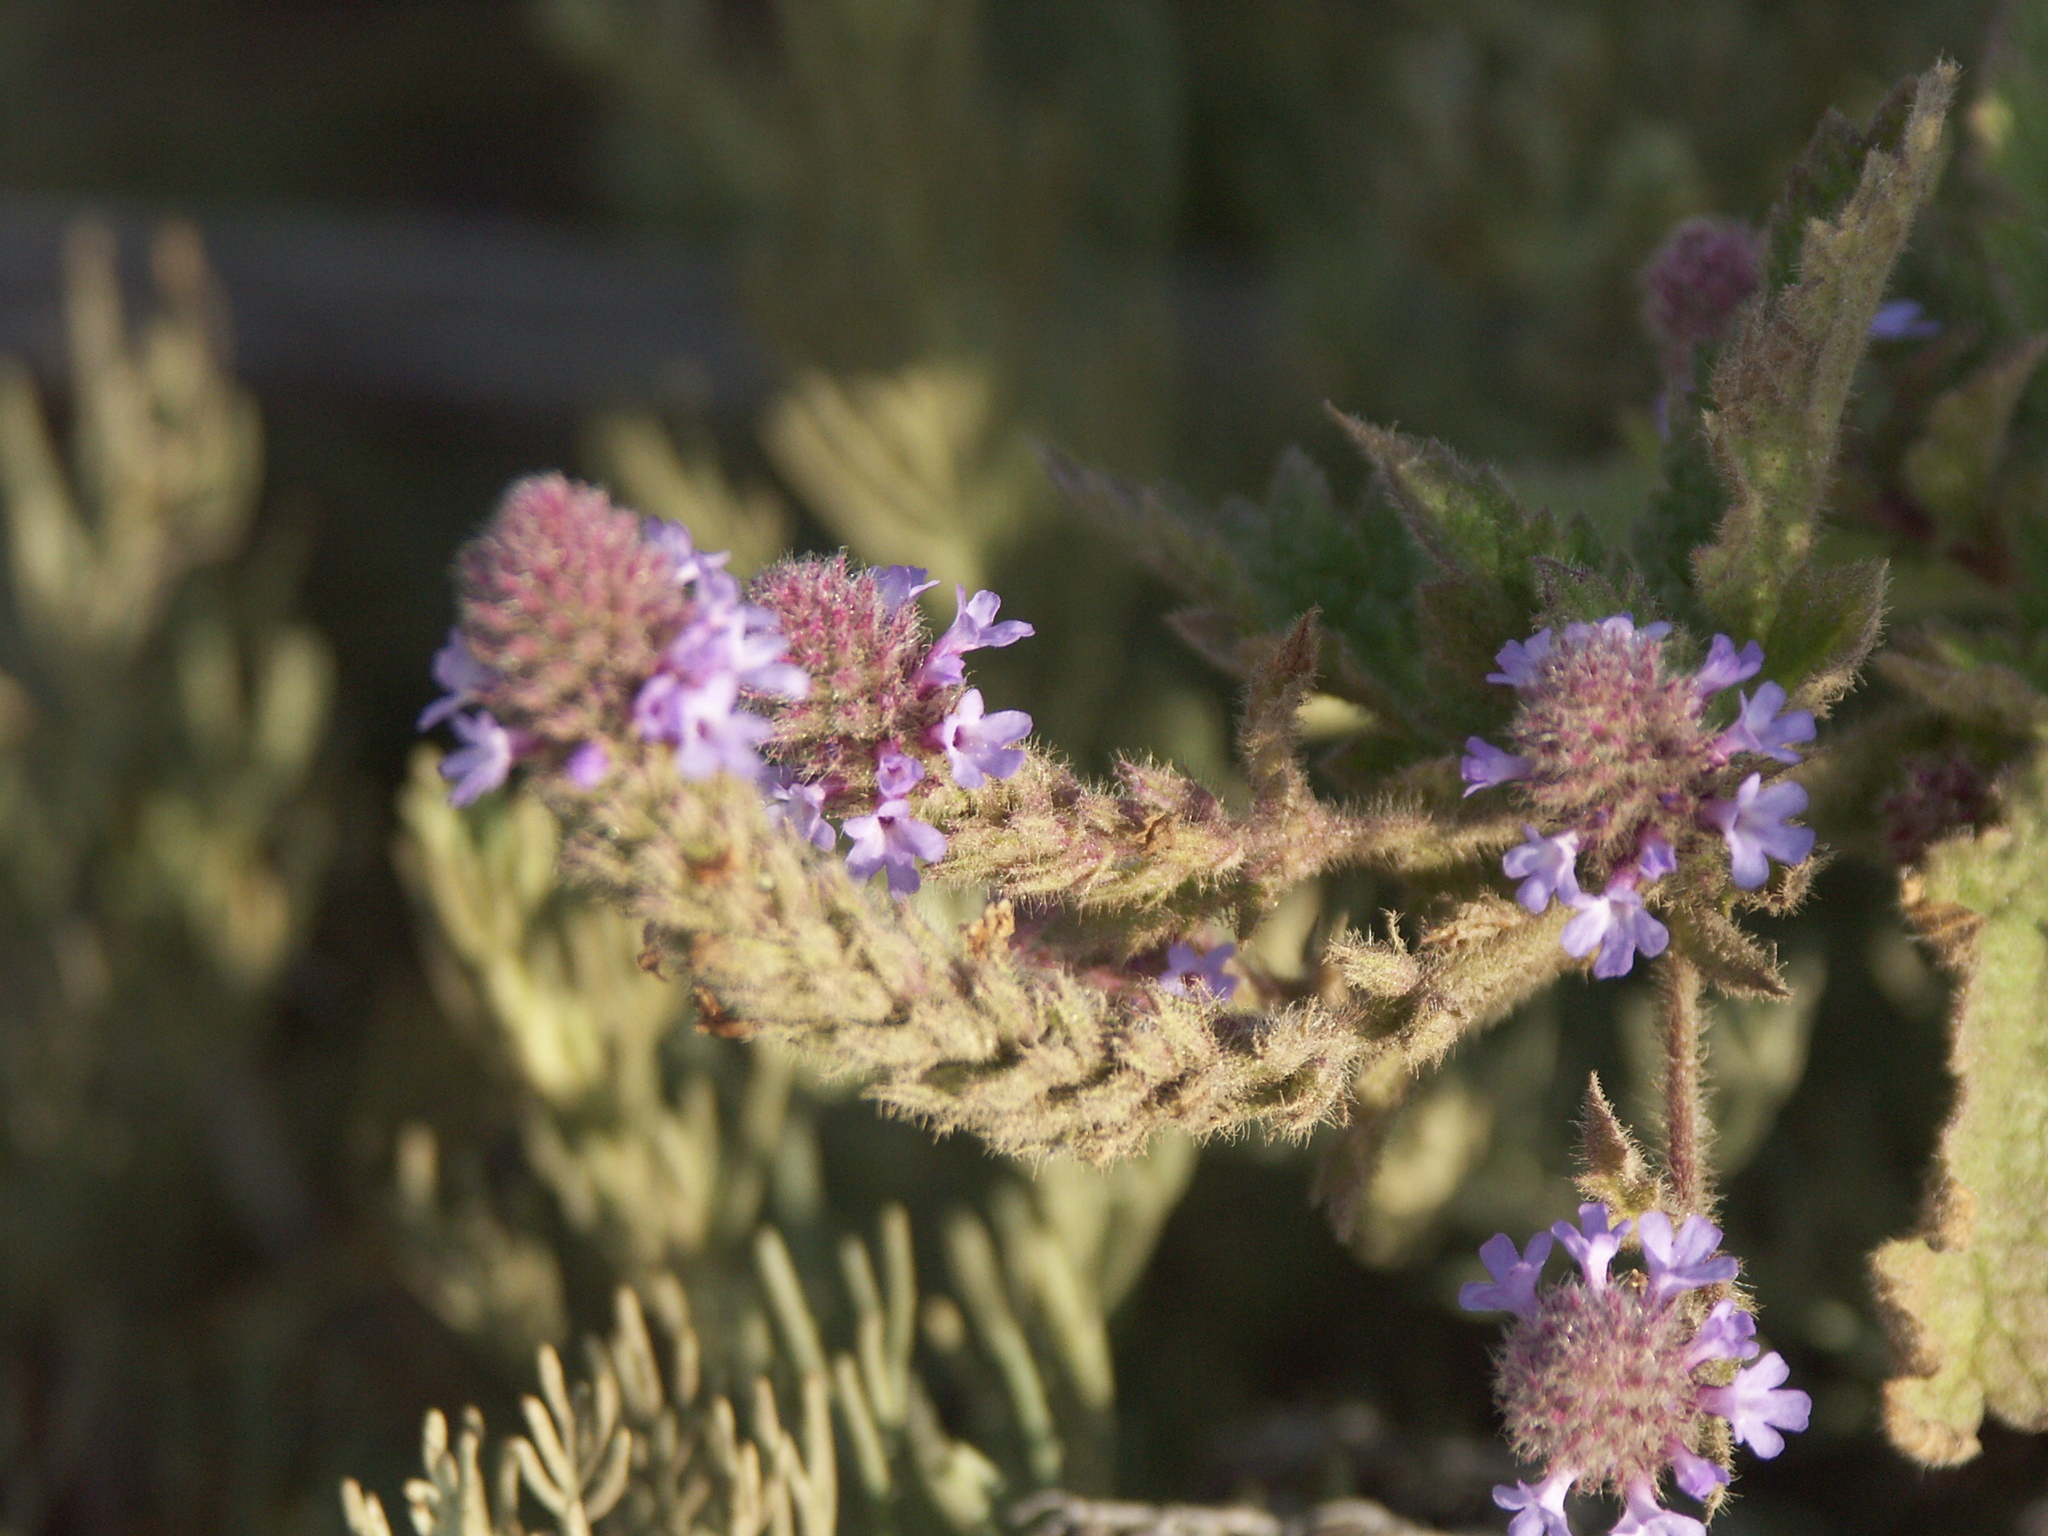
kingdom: Plantae
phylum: Tracheophyta
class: Magnoliopsida
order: Lamiales
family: Verbenaceae
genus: Verbena
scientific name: Verbena lasiostachys
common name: Vervain
